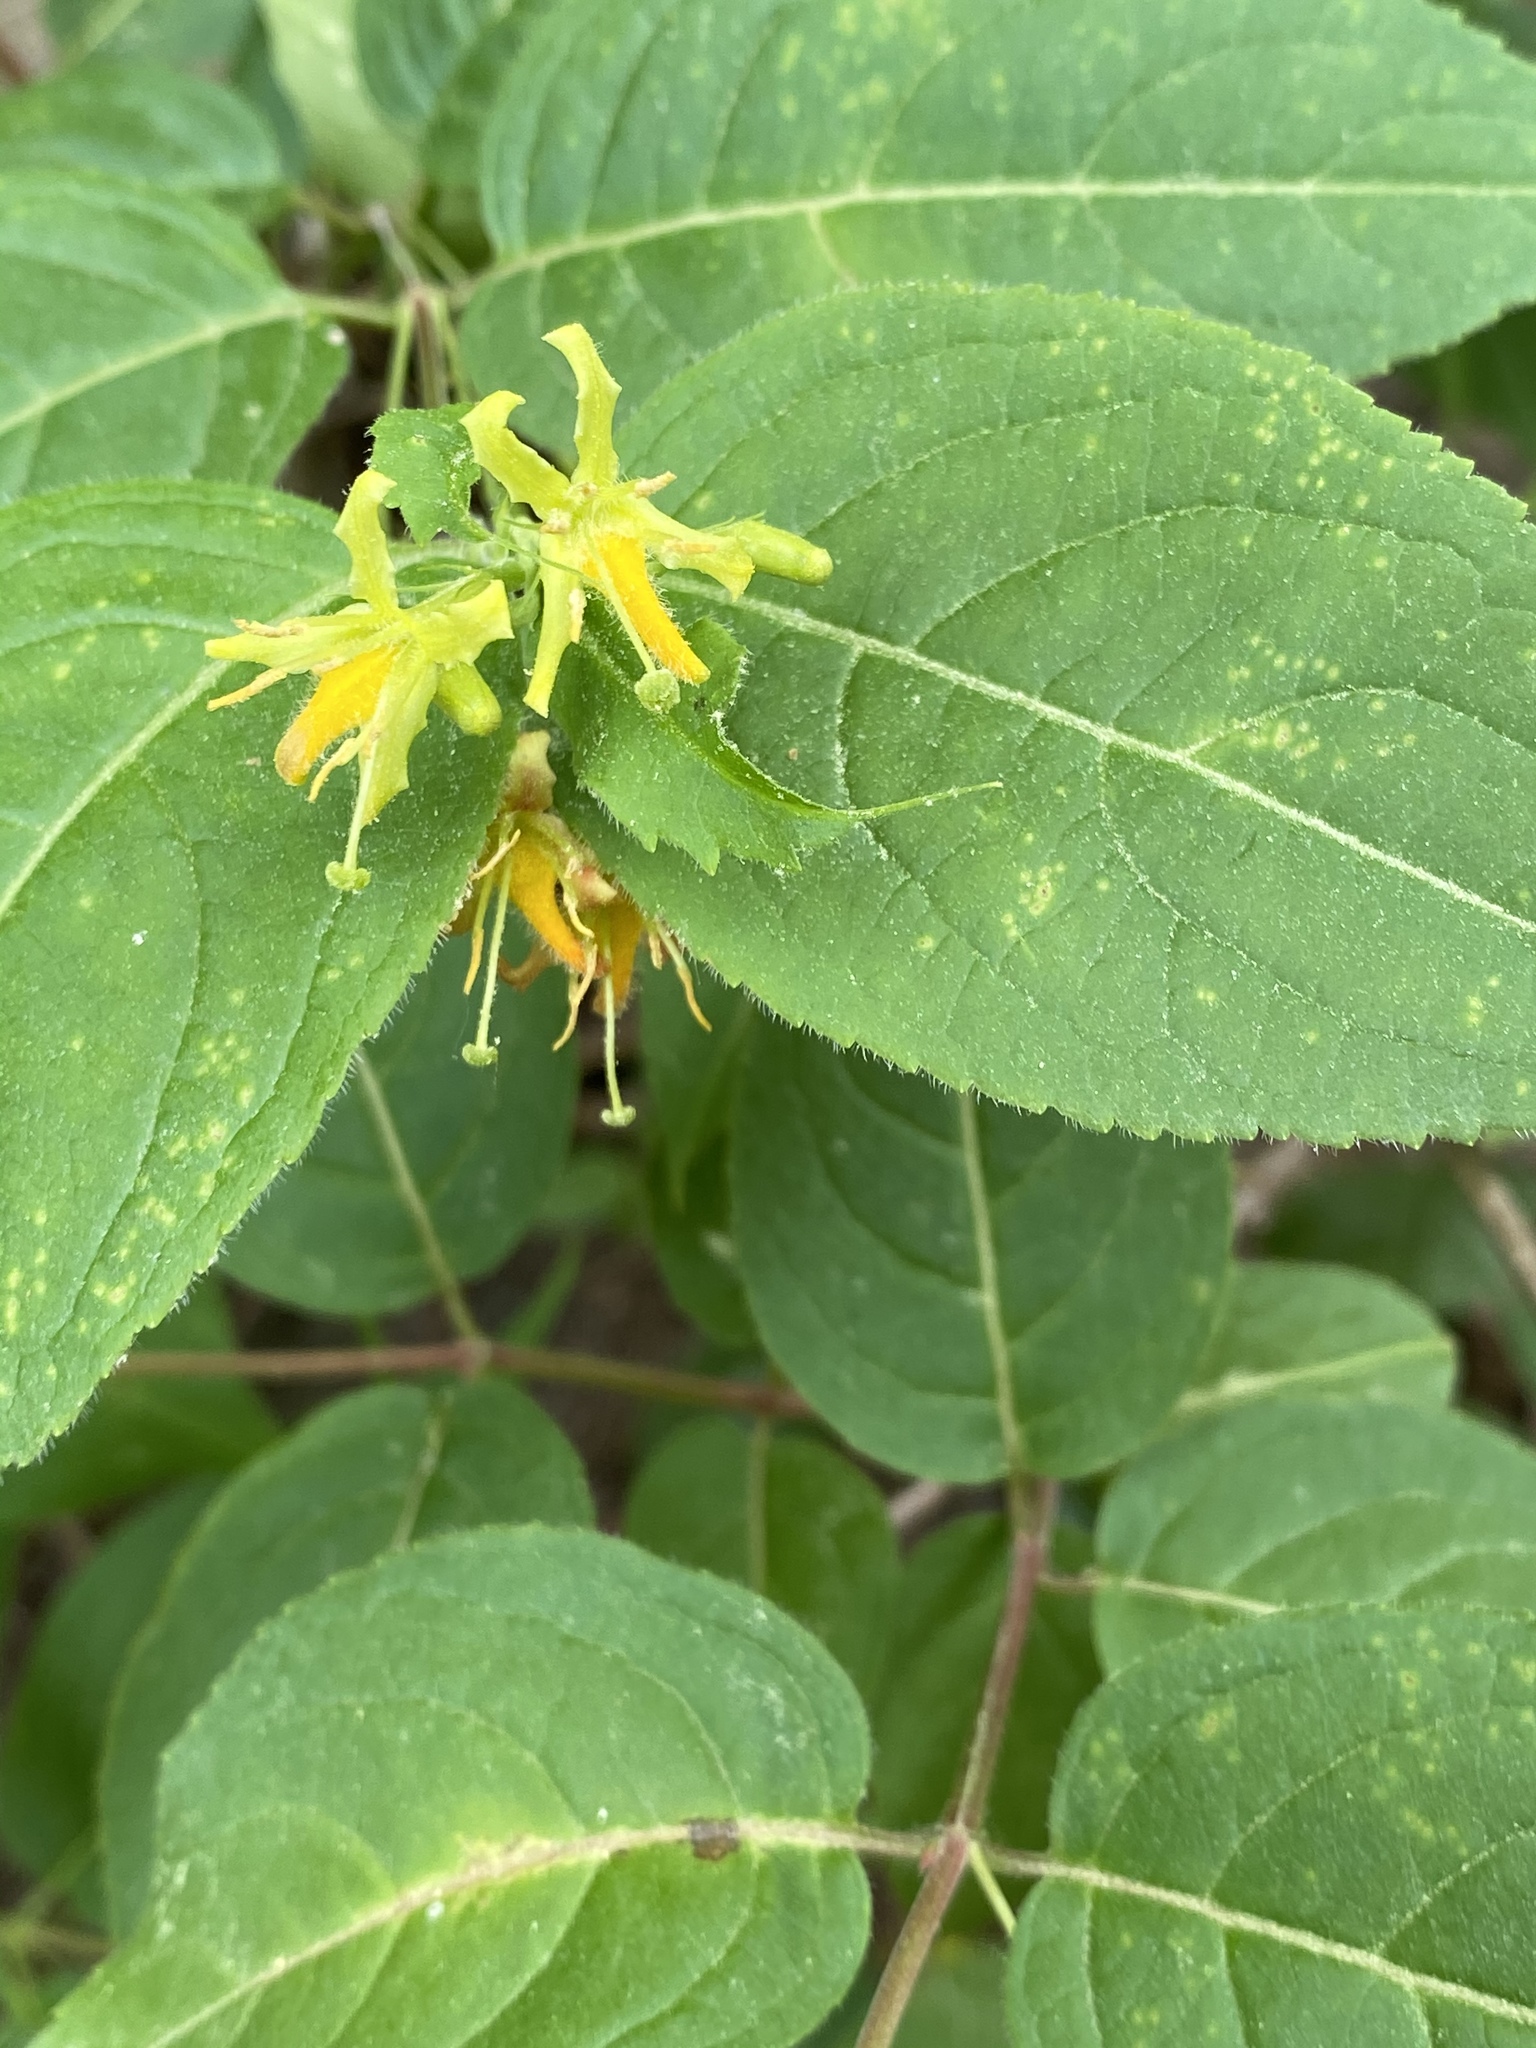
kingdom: Plantae
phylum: Tracheophyta
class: Magnoliopsida
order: Dipsacales
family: Caprifoliaceae
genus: Diervilla
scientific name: Diervilla lonicera
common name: Bush-honeysuckle
